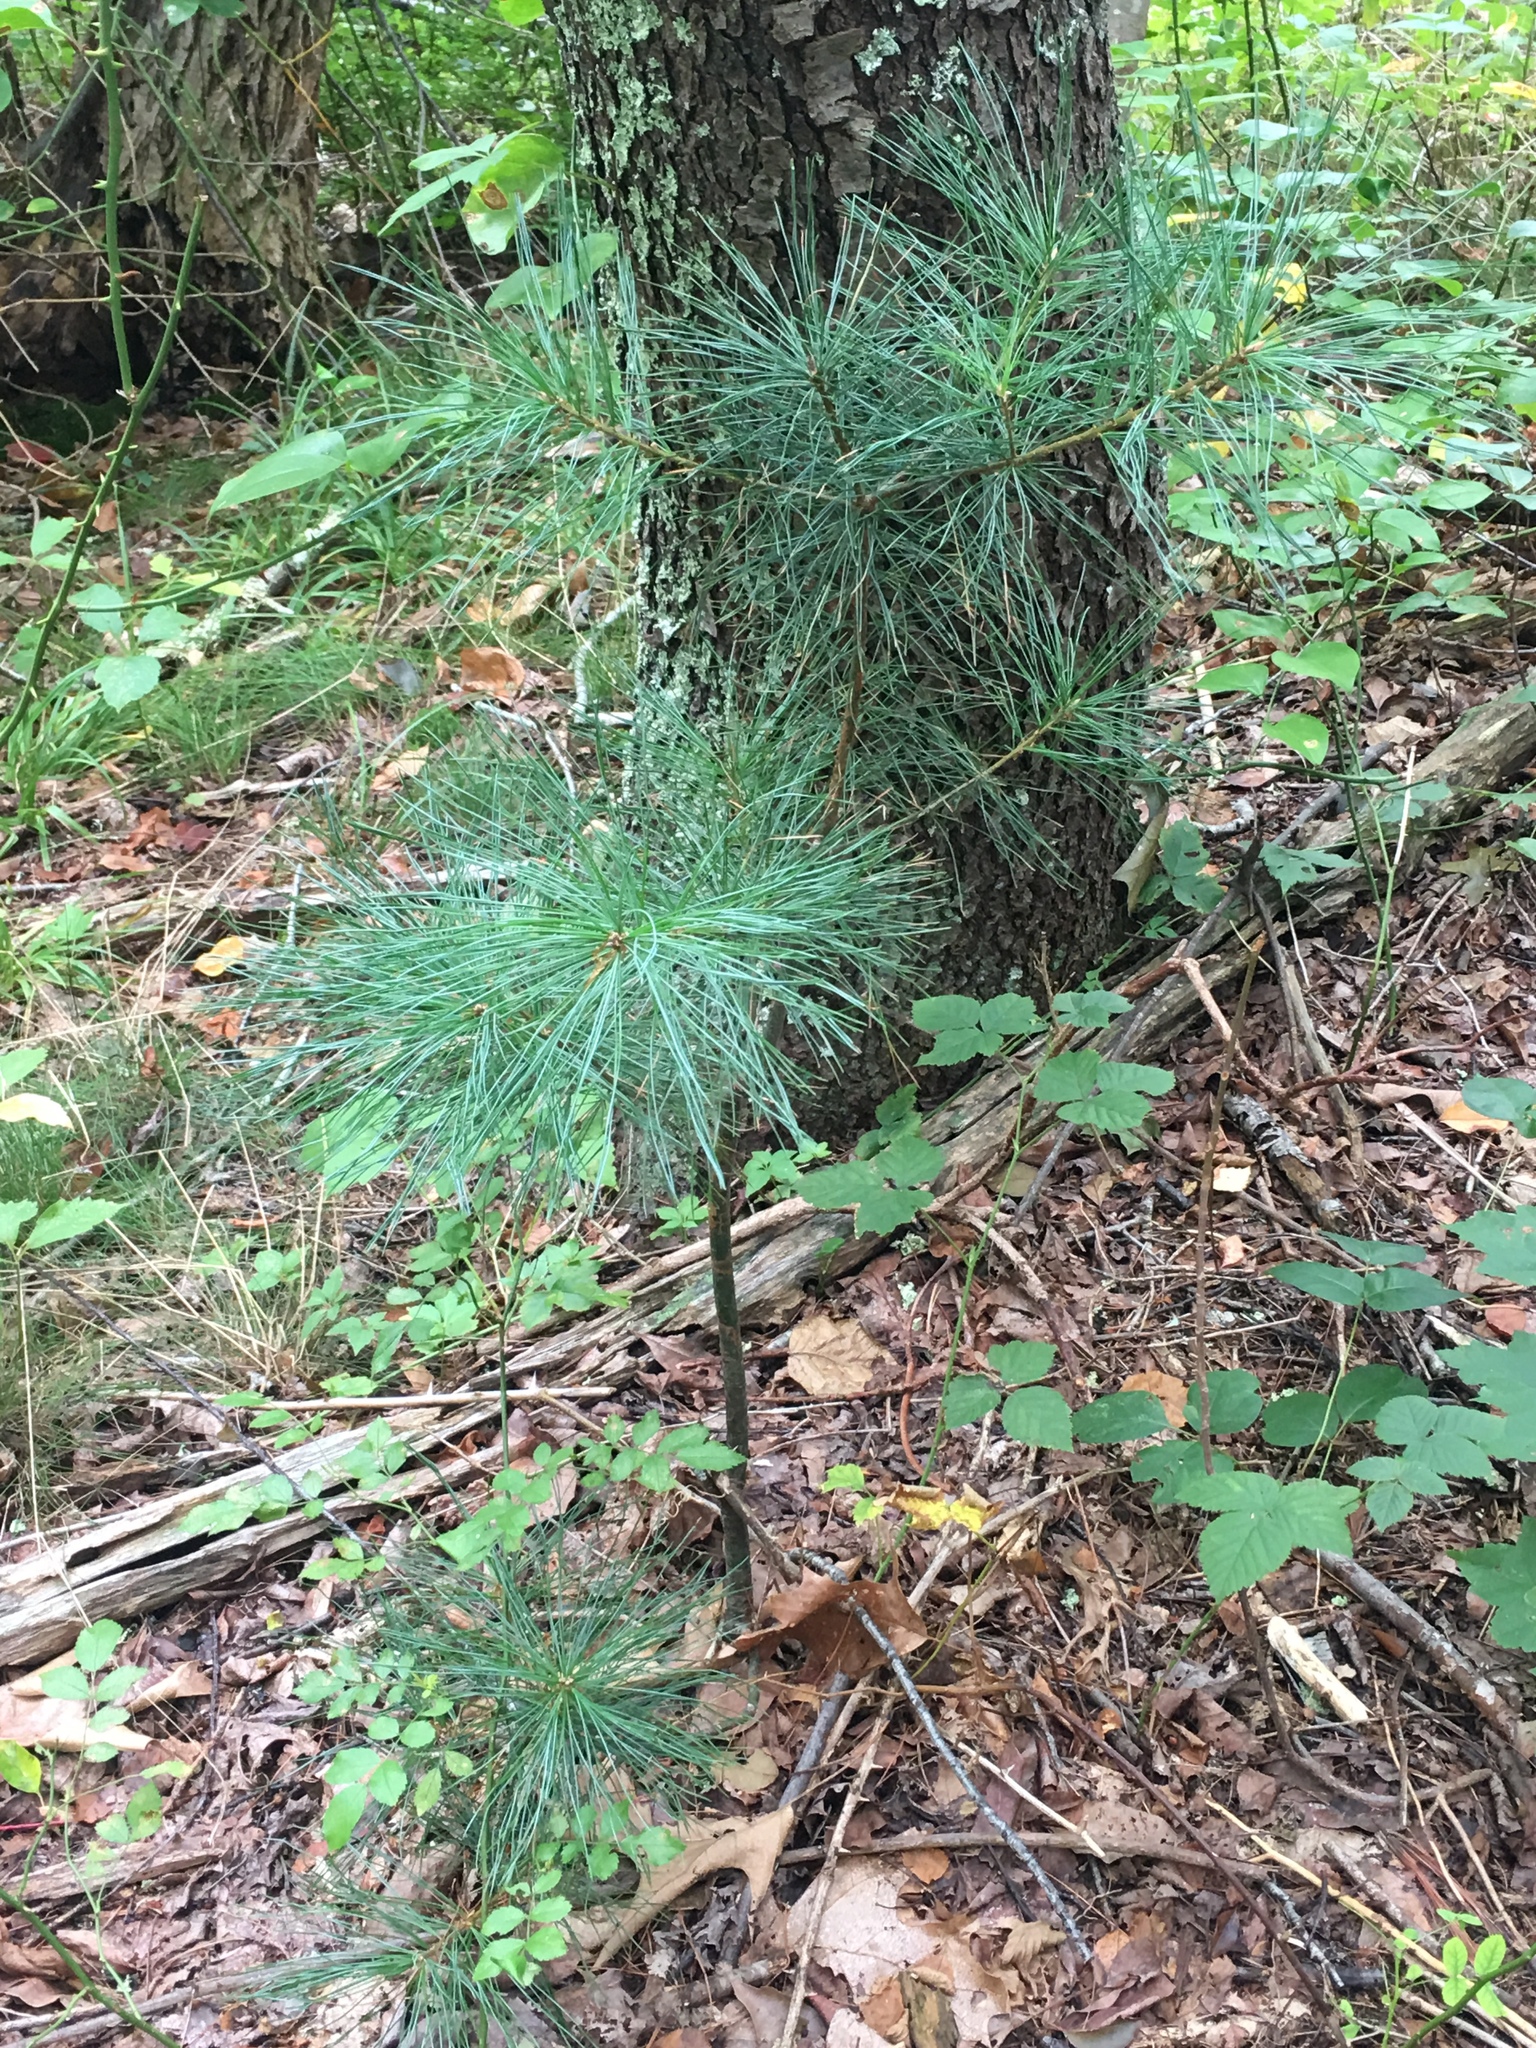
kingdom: Plantae
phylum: Tracheophyta
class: Pinopsida
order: Pinales
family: Pinaceae
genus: Pinus
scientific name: Pinus strobus
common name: Weymouth pine
